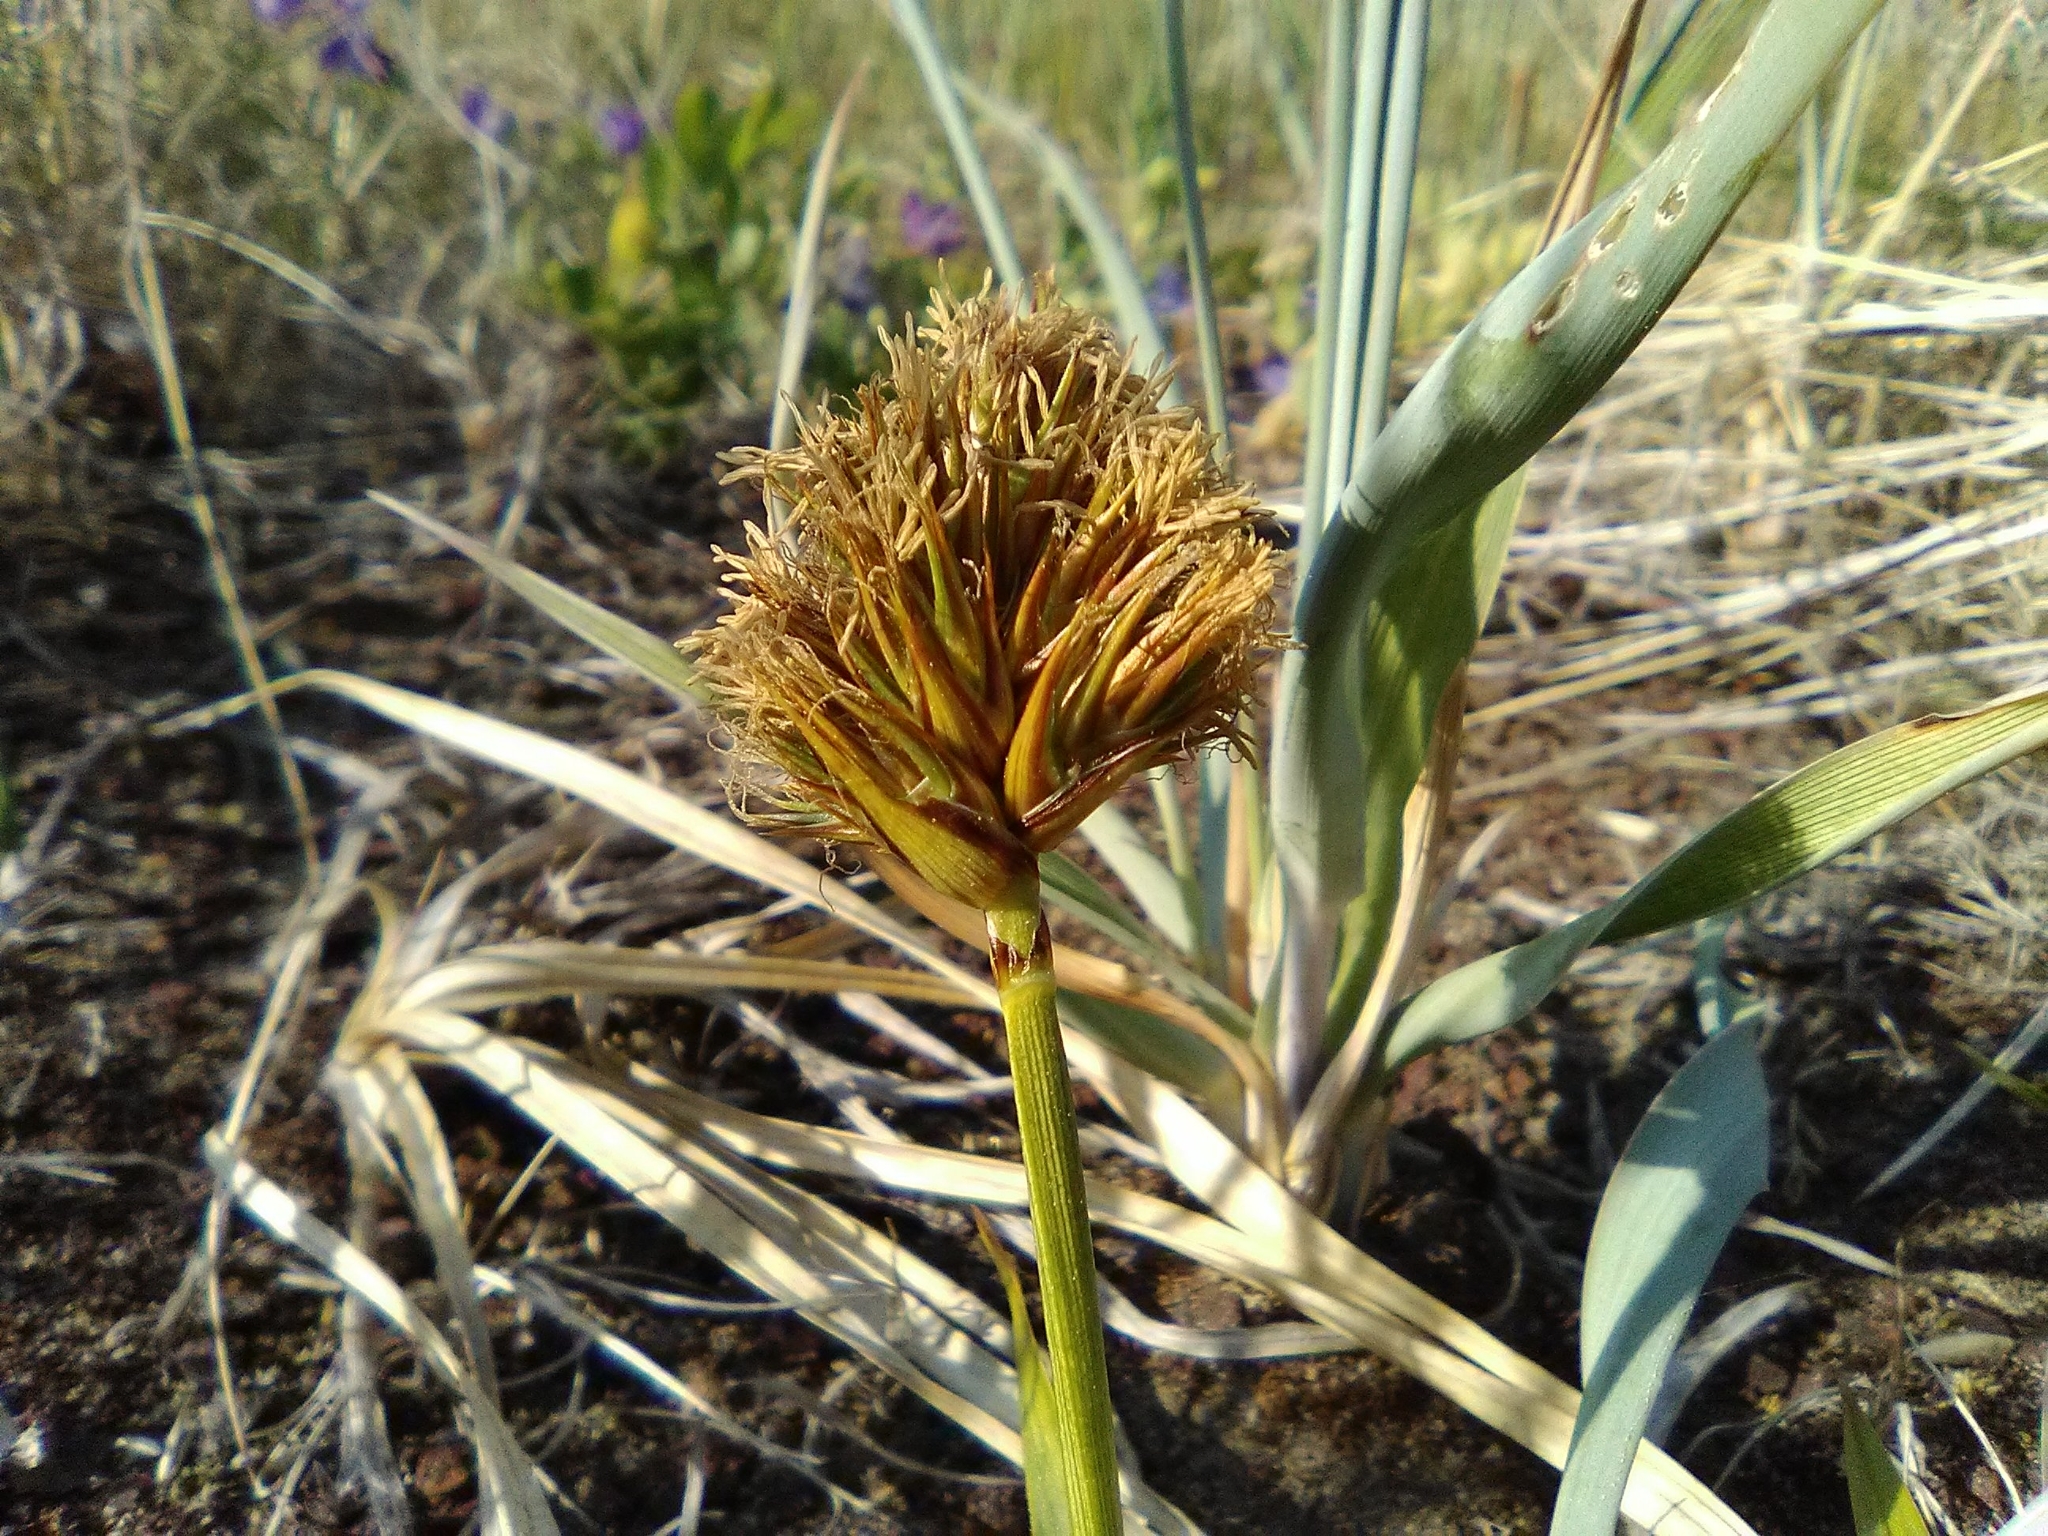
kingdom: Plantae
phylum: Tracheophyta
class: Liliopsida
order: Poales
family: Cyperaceae
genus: Carex
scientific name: Carex macrocephala
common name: Large-head sedge
